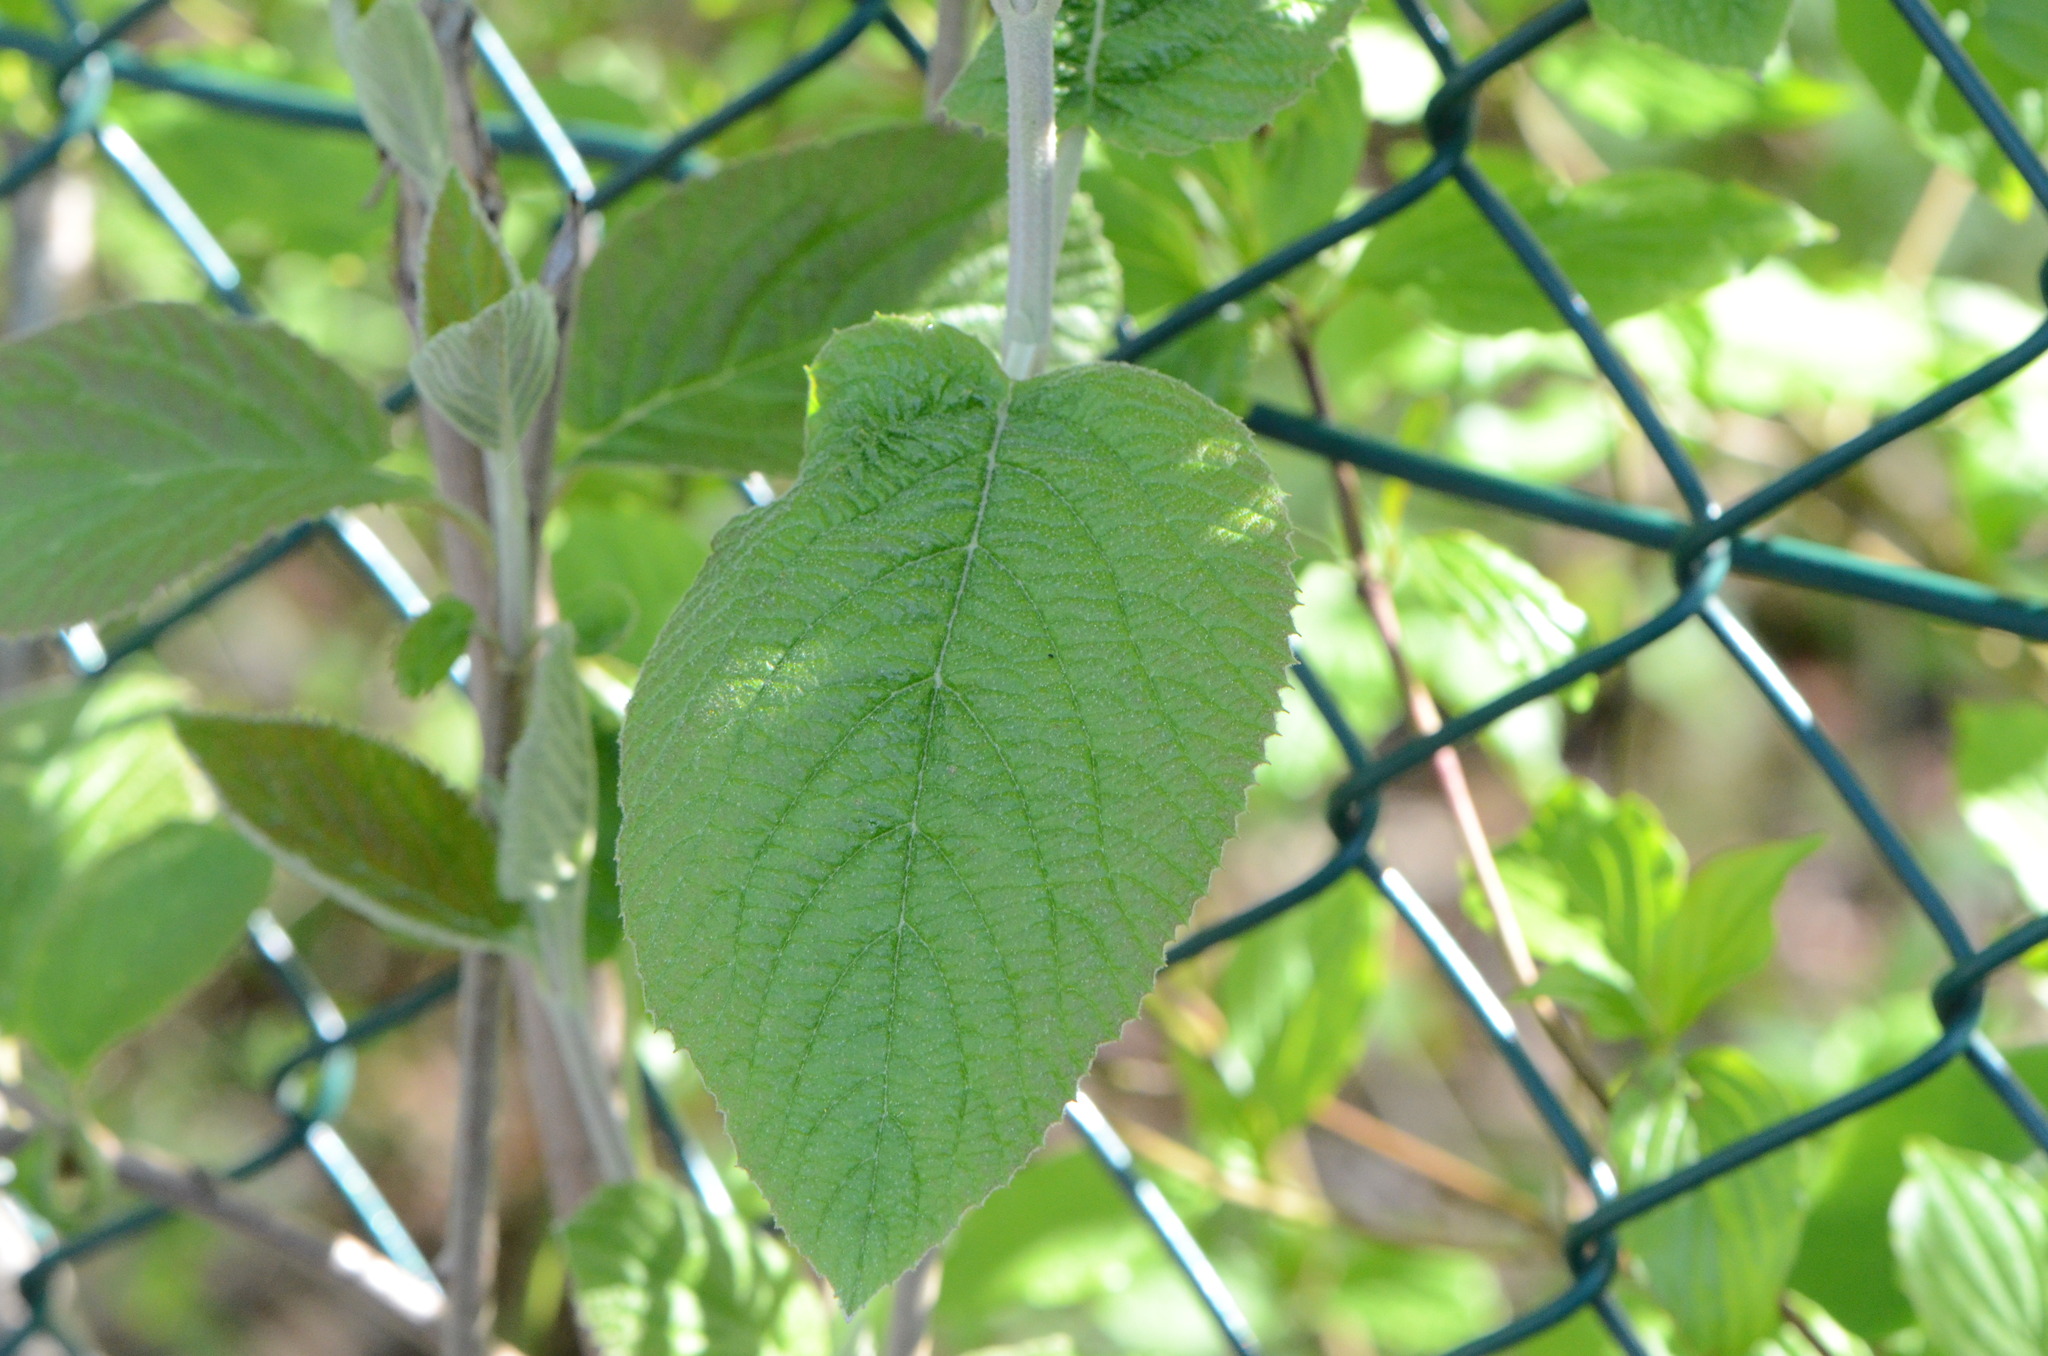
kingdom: Plantae
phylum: Tracheophyta
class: Magnoliopsida
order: Dipsacales
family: Viburnaceae
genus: Viburnum
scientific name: Viburnum lantana
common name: Wayfaring tree
